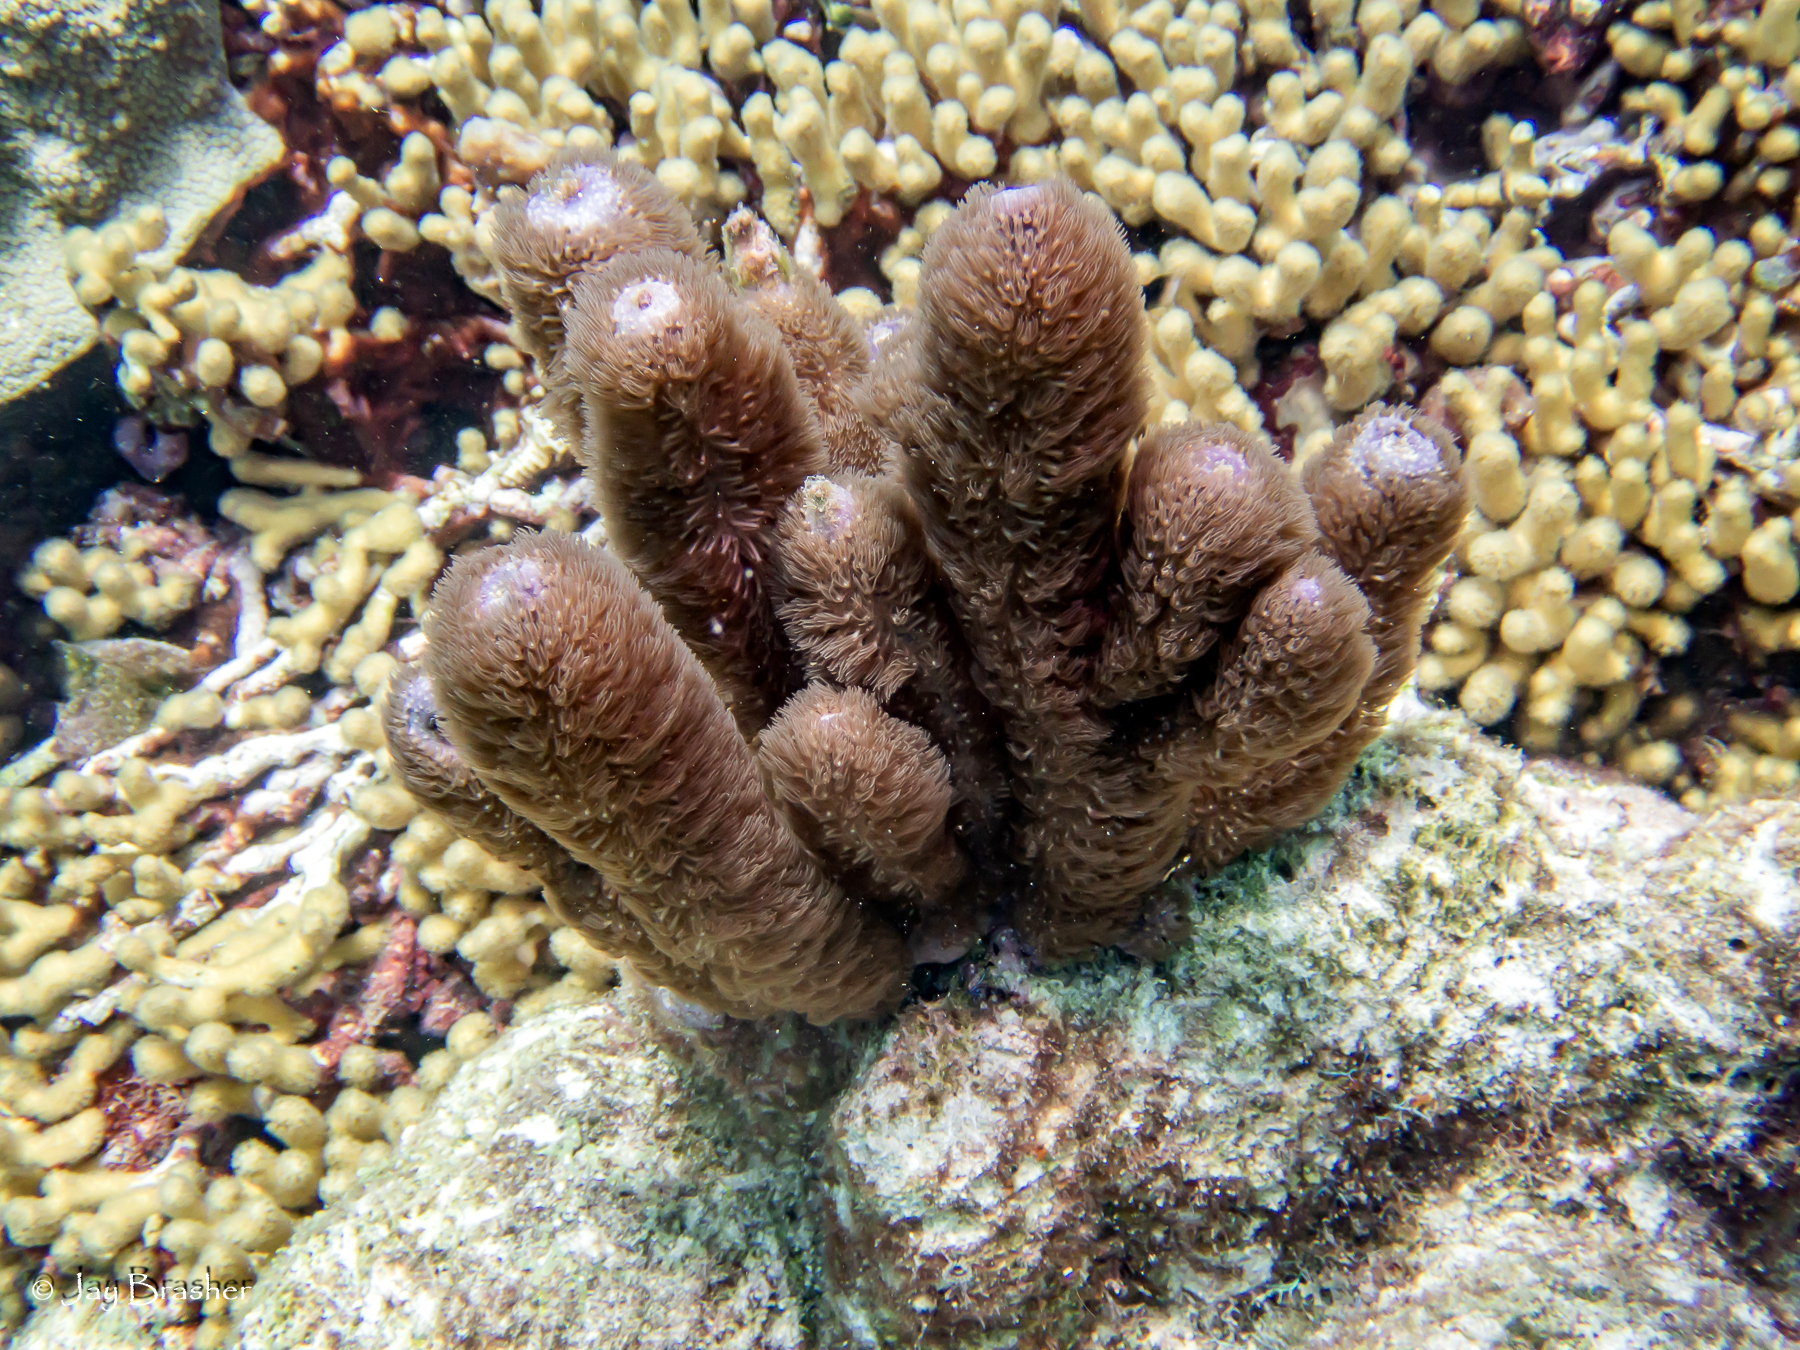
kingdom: Animalia
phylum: Cnidaria
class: Anthozoa
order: Scleralcyonacea
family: Briareidae
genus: Briareum
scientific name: Briareum asbestinum
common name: Corky sea finger
